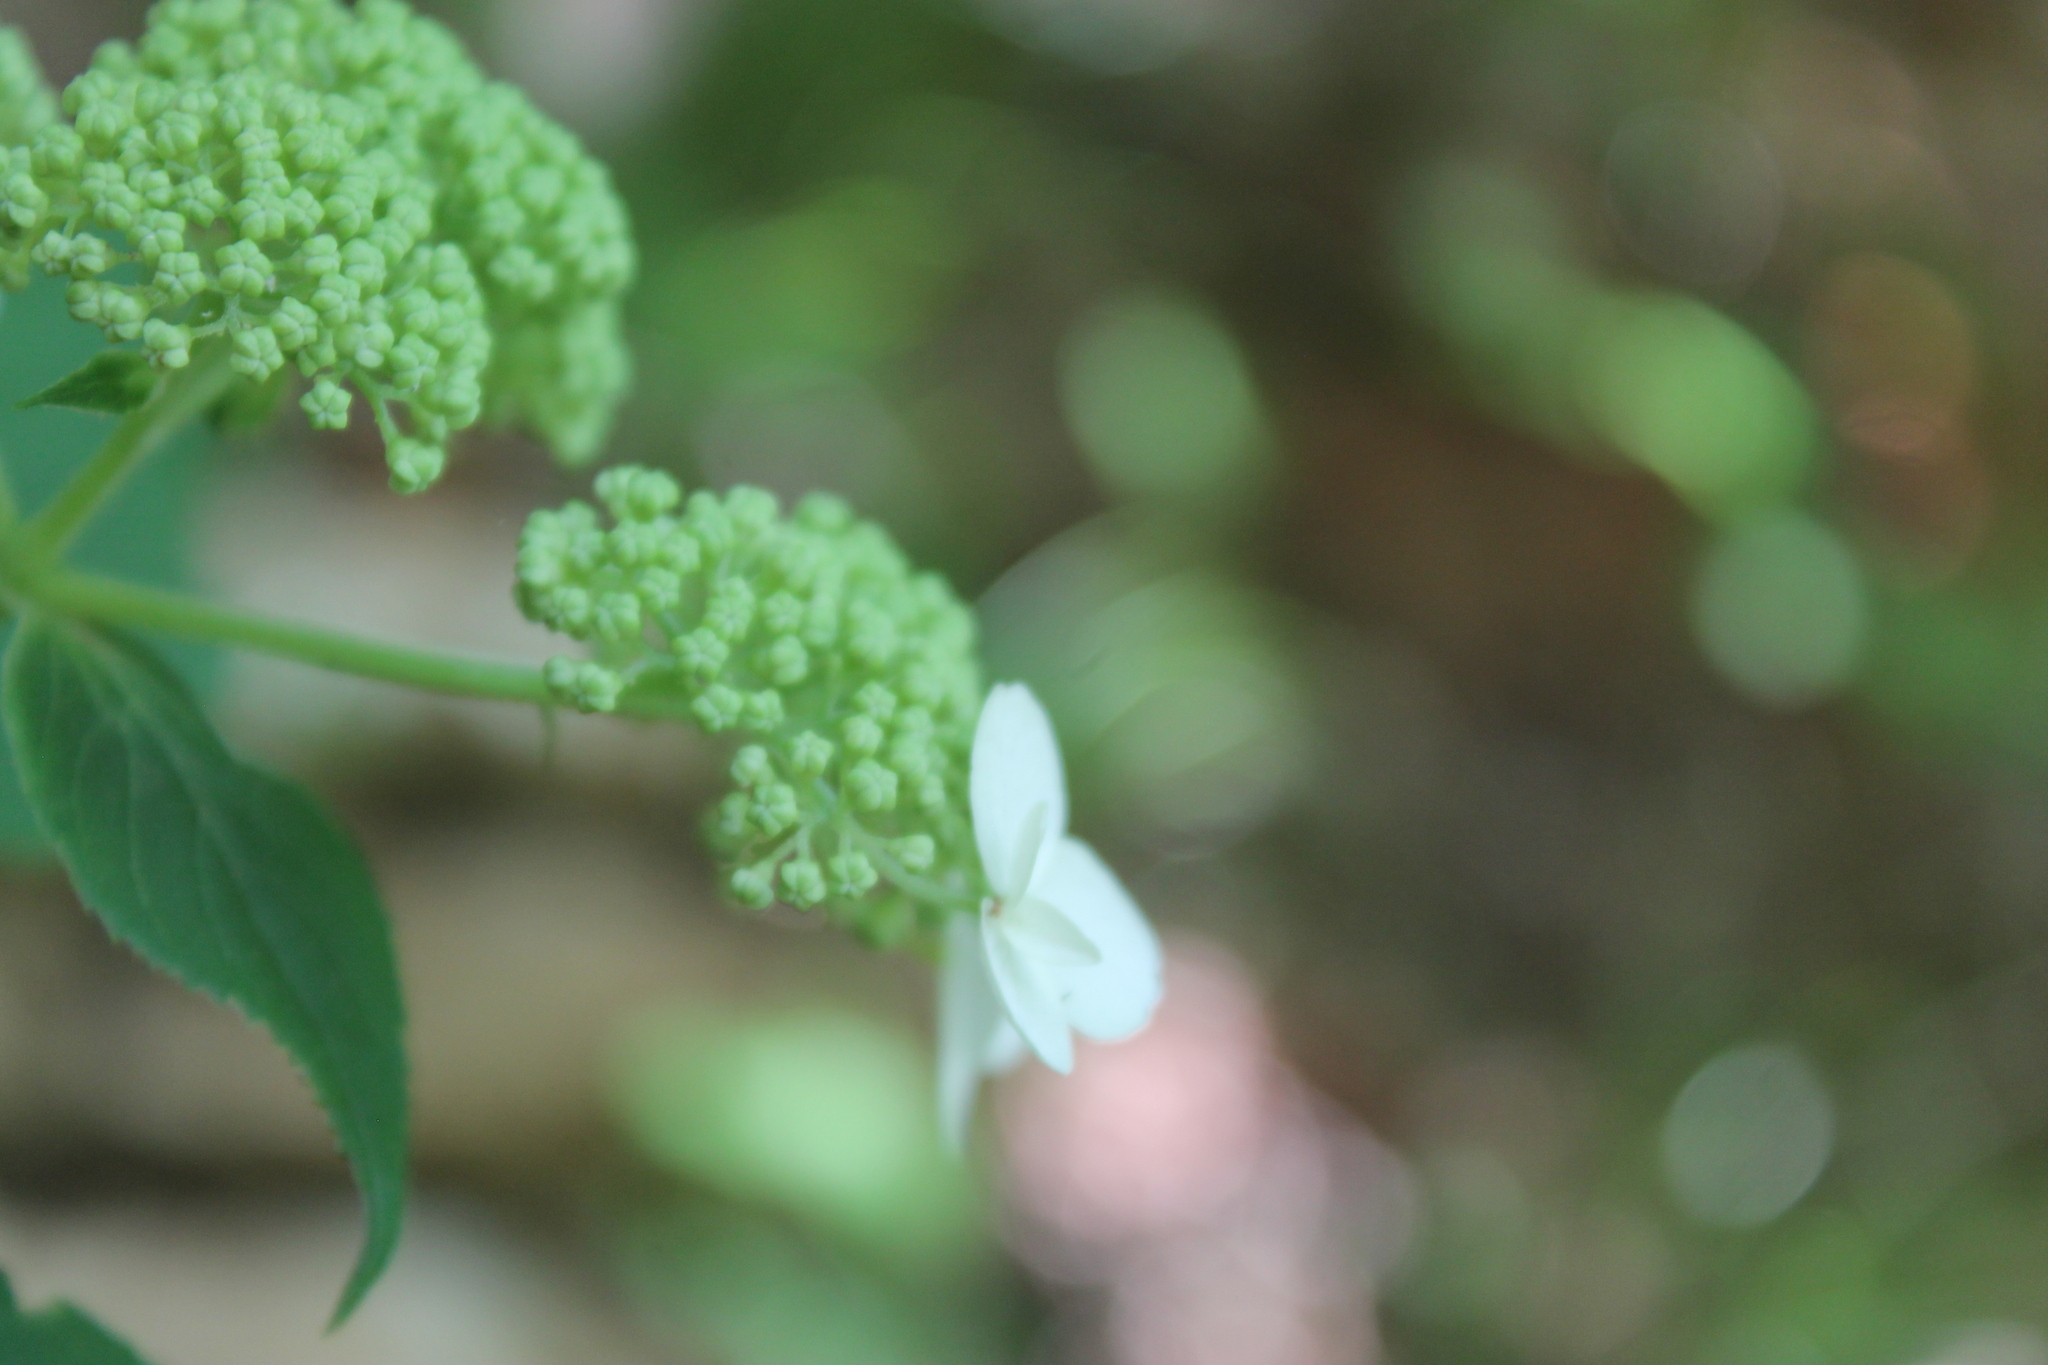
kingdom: Plantae
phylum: Tracheophyta
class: Magnoliopsida
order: Cornales
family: Hydrangeaceae
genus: Hydrangea
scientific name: Hydrangea arborescens
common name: Sevenbark
